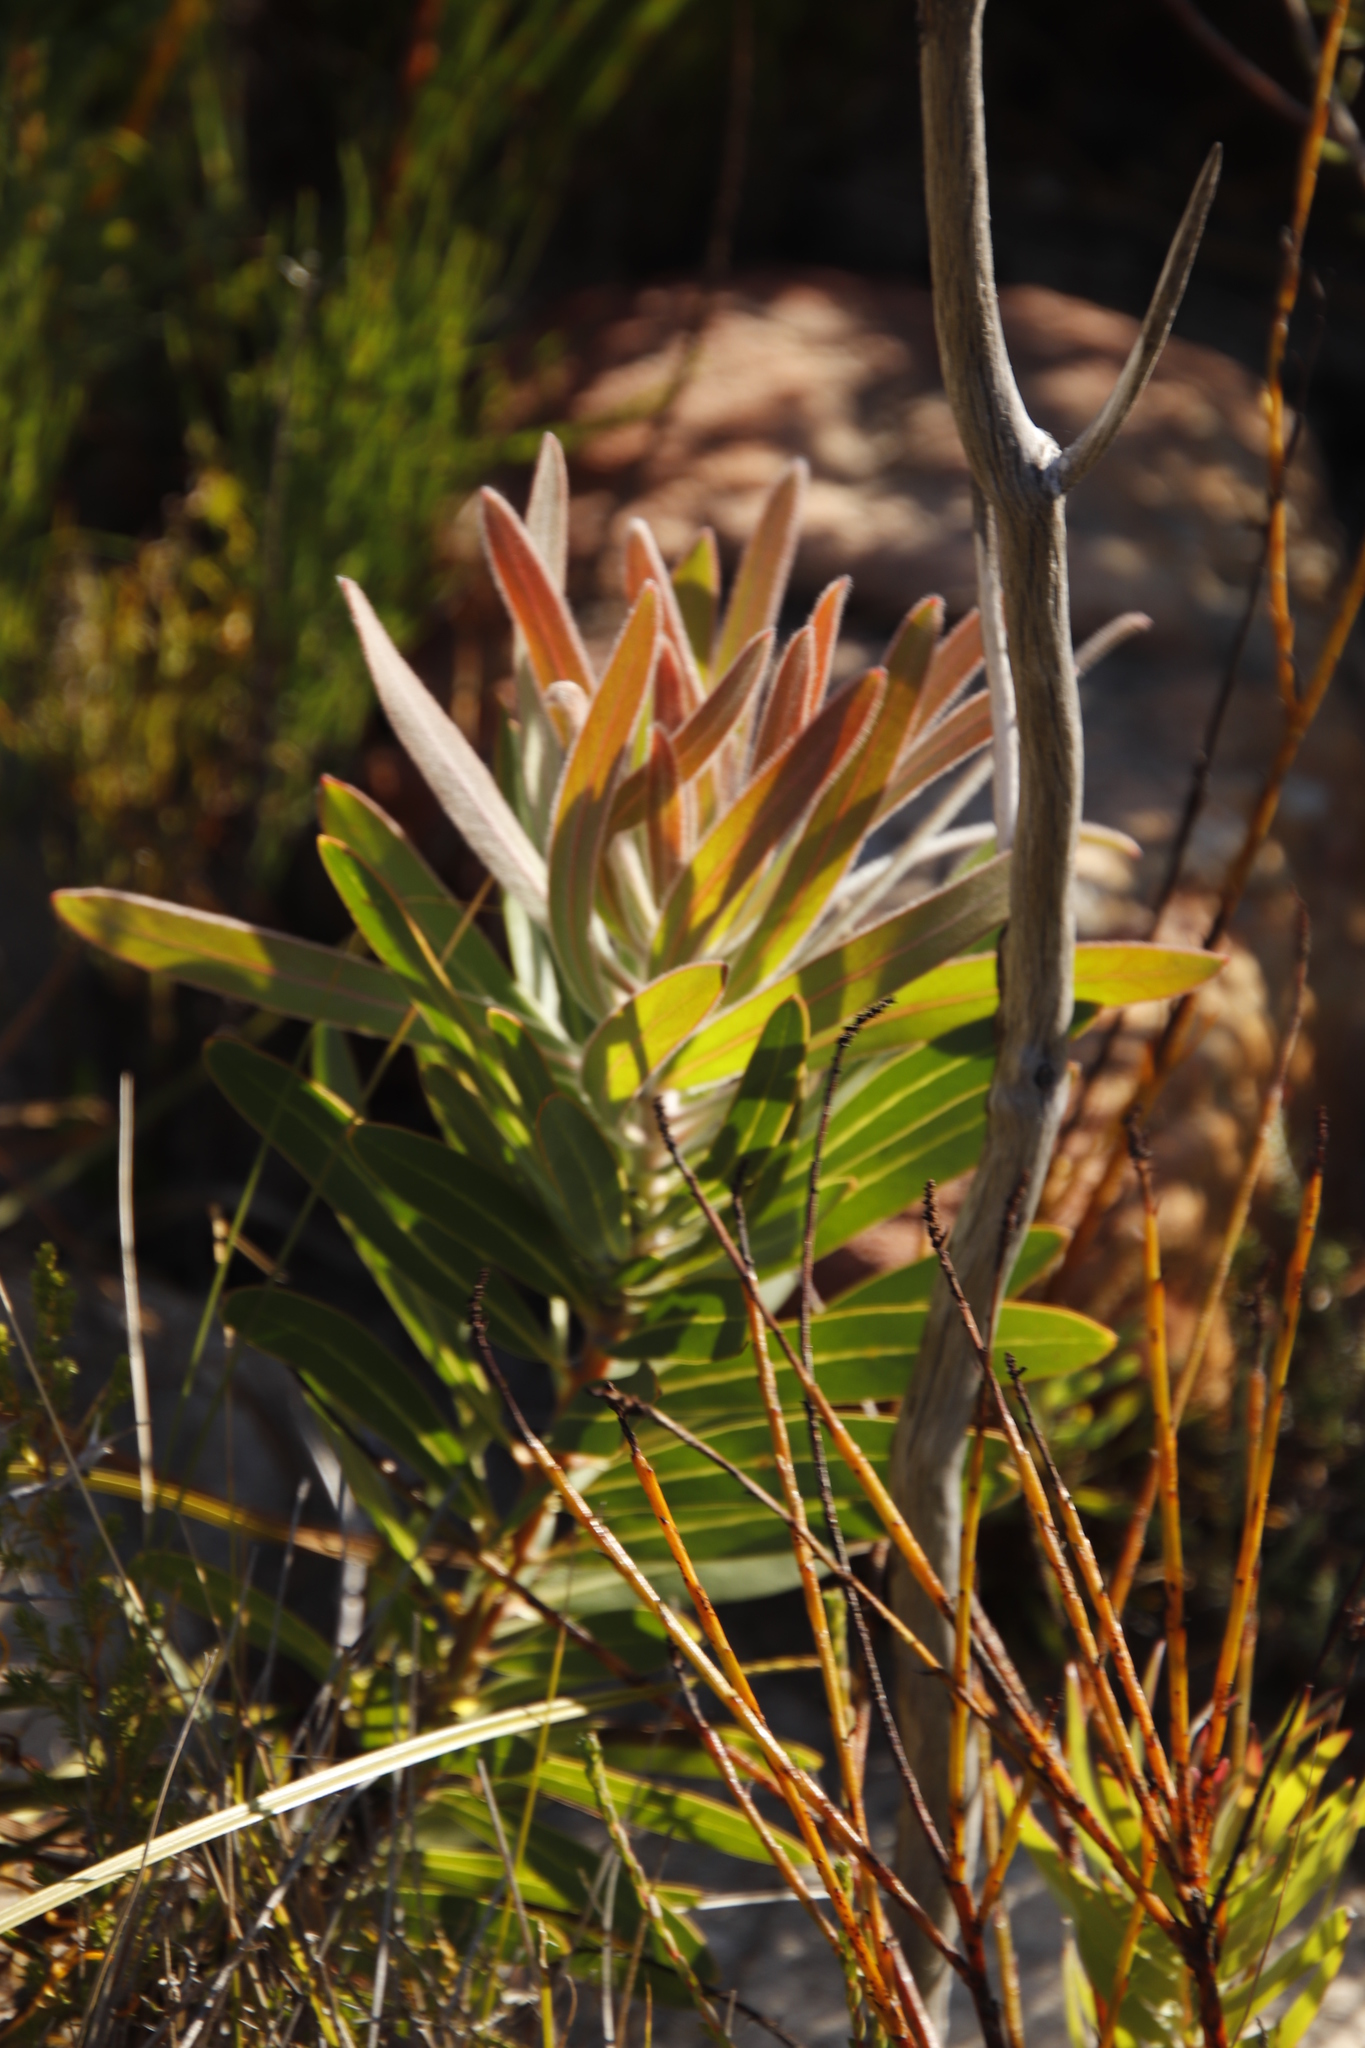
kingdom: Plantae
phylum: Tracheophyta
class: Magnoliopsida
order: Proteales
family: Proteaceae
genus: Protea
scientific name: Protea laurifolia
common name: Grey-leaf sugarbsh
